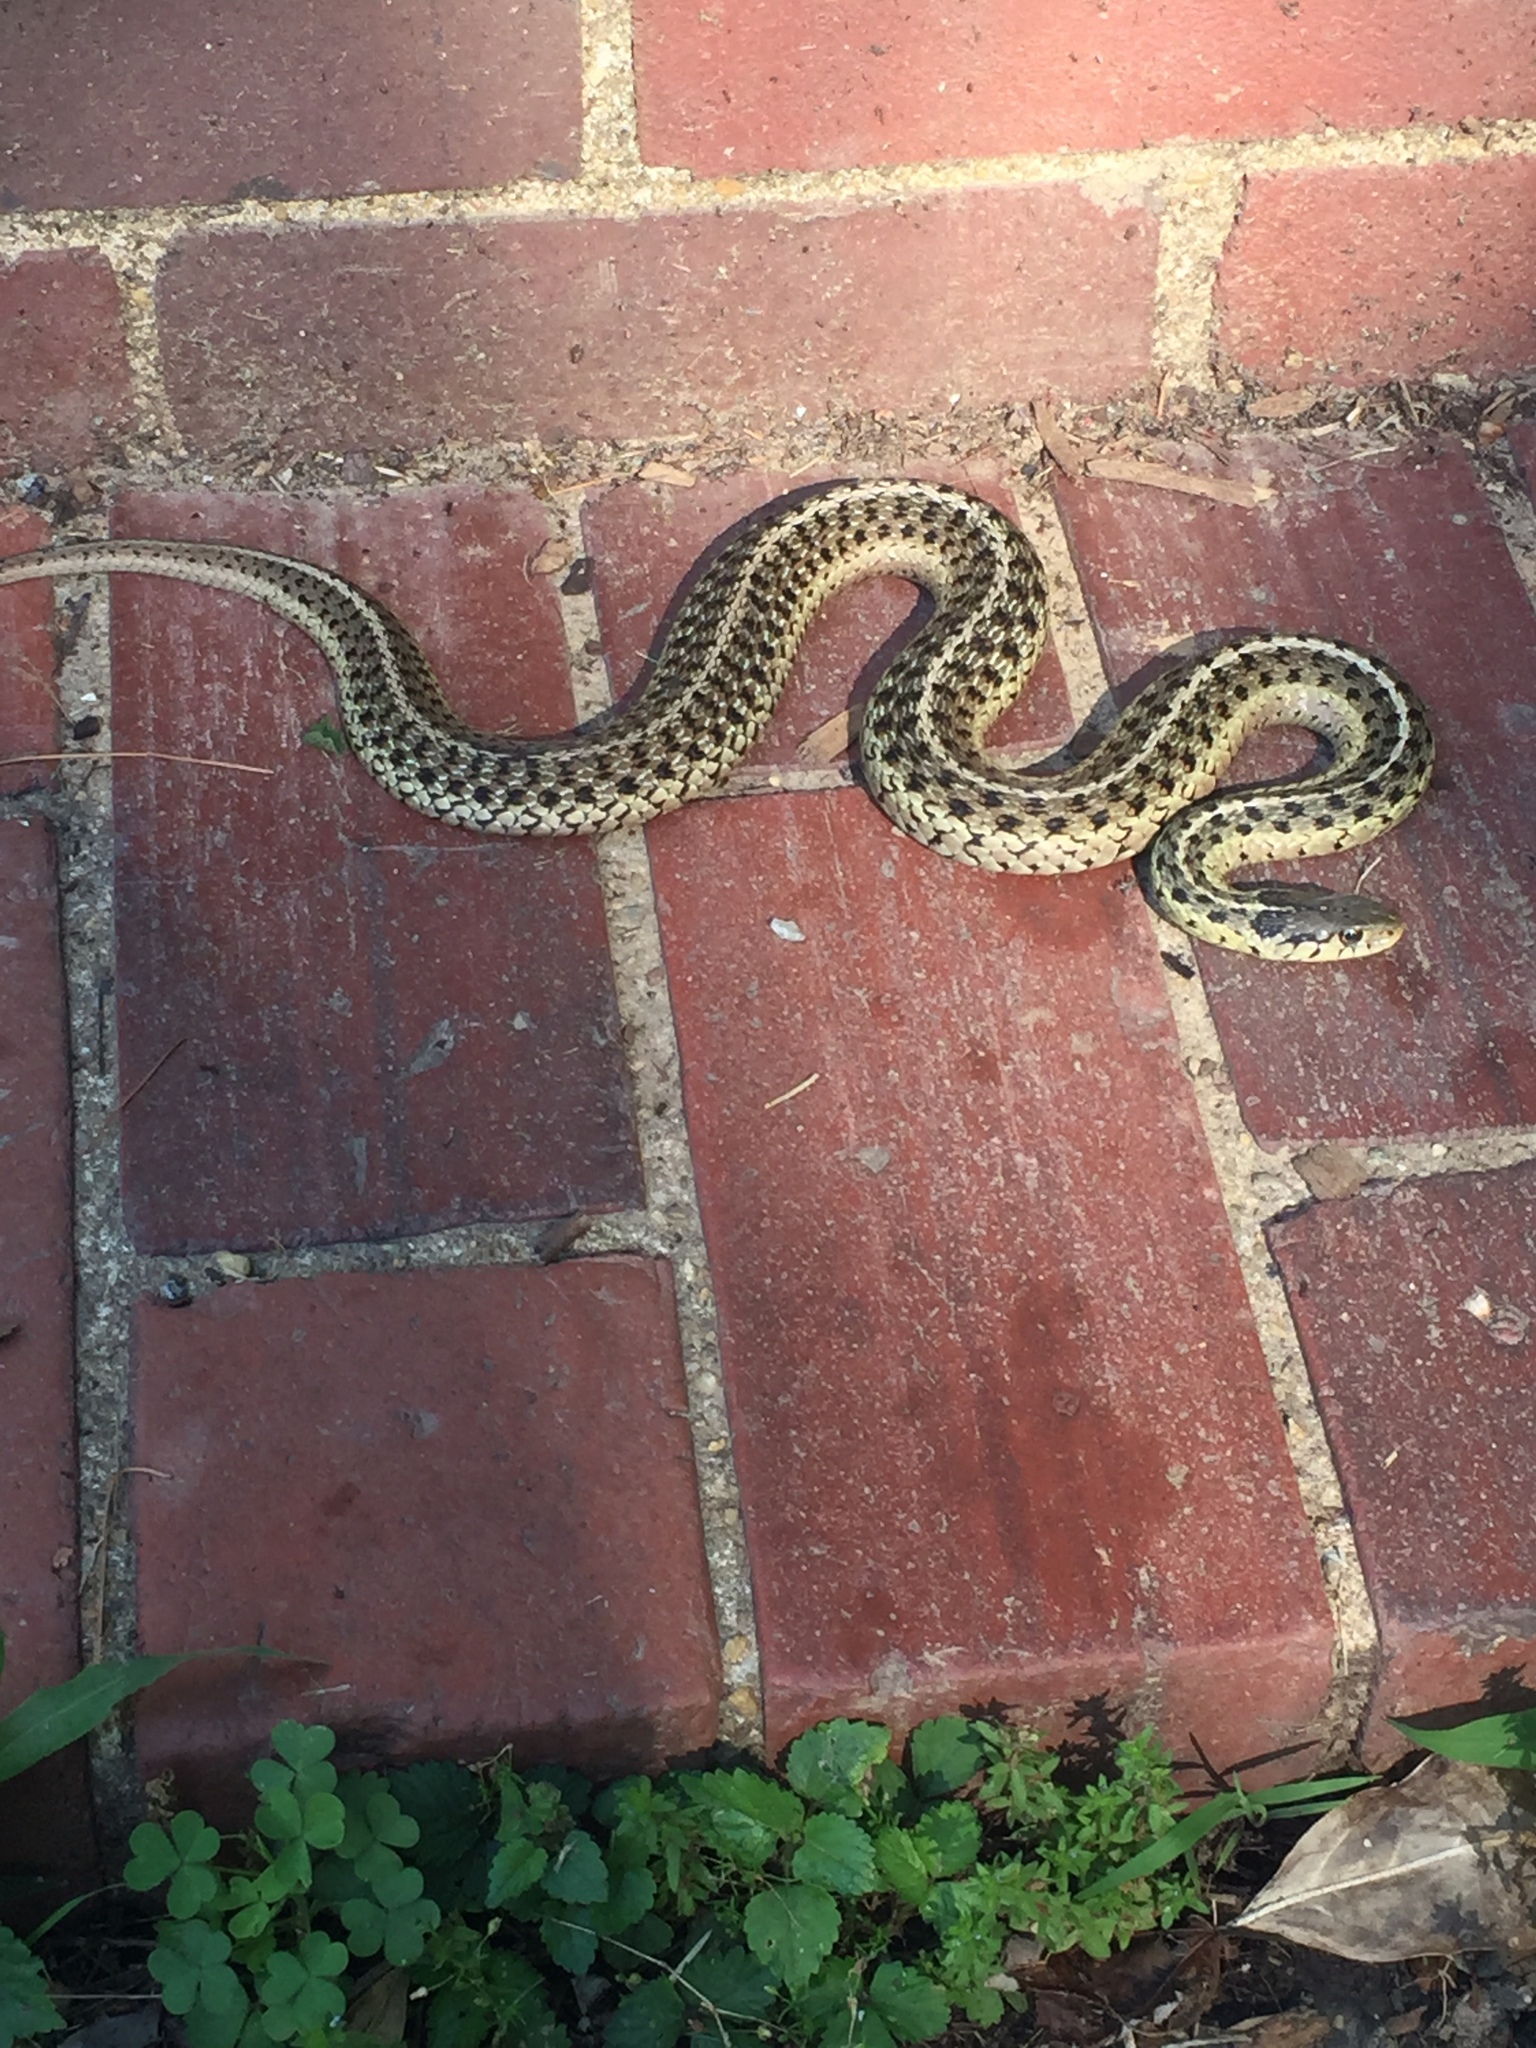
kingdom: Animalia
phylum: Chordata
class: Squamata
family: Colubridae
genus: Thamnophis
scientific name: Thamnophis sirtalis
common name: Common garter snake
